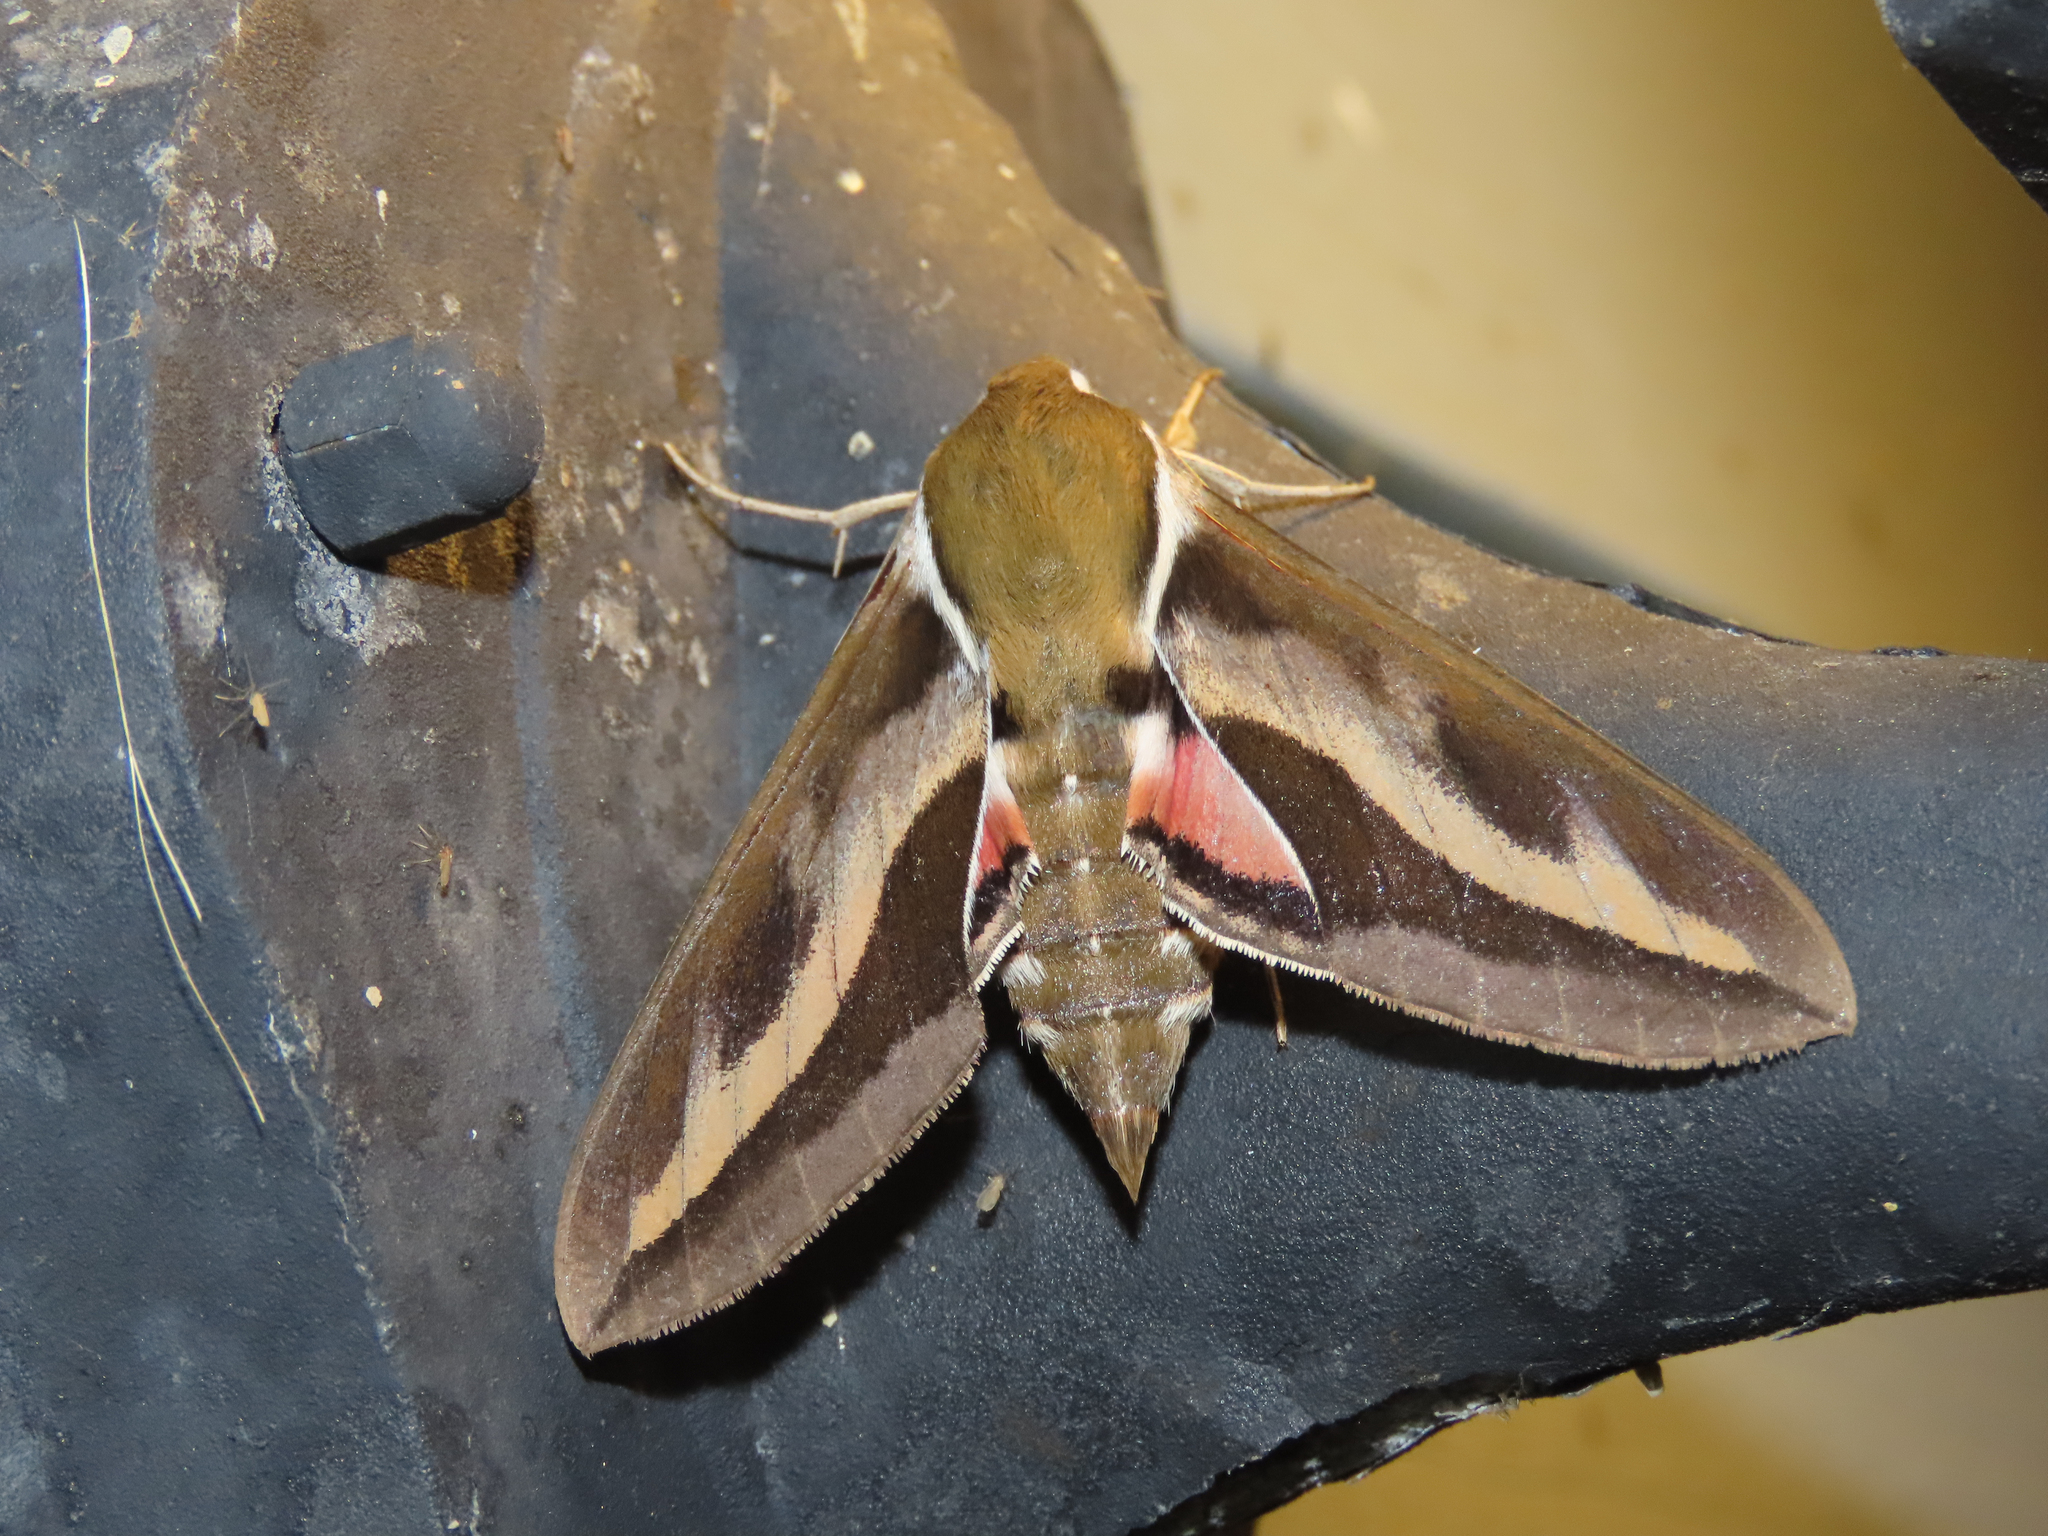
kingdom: Animalia
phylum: Arthropoda
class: Insecta
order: Lepidoptera
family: Sphingidae
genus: Hyles
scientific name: Hyles gallii
